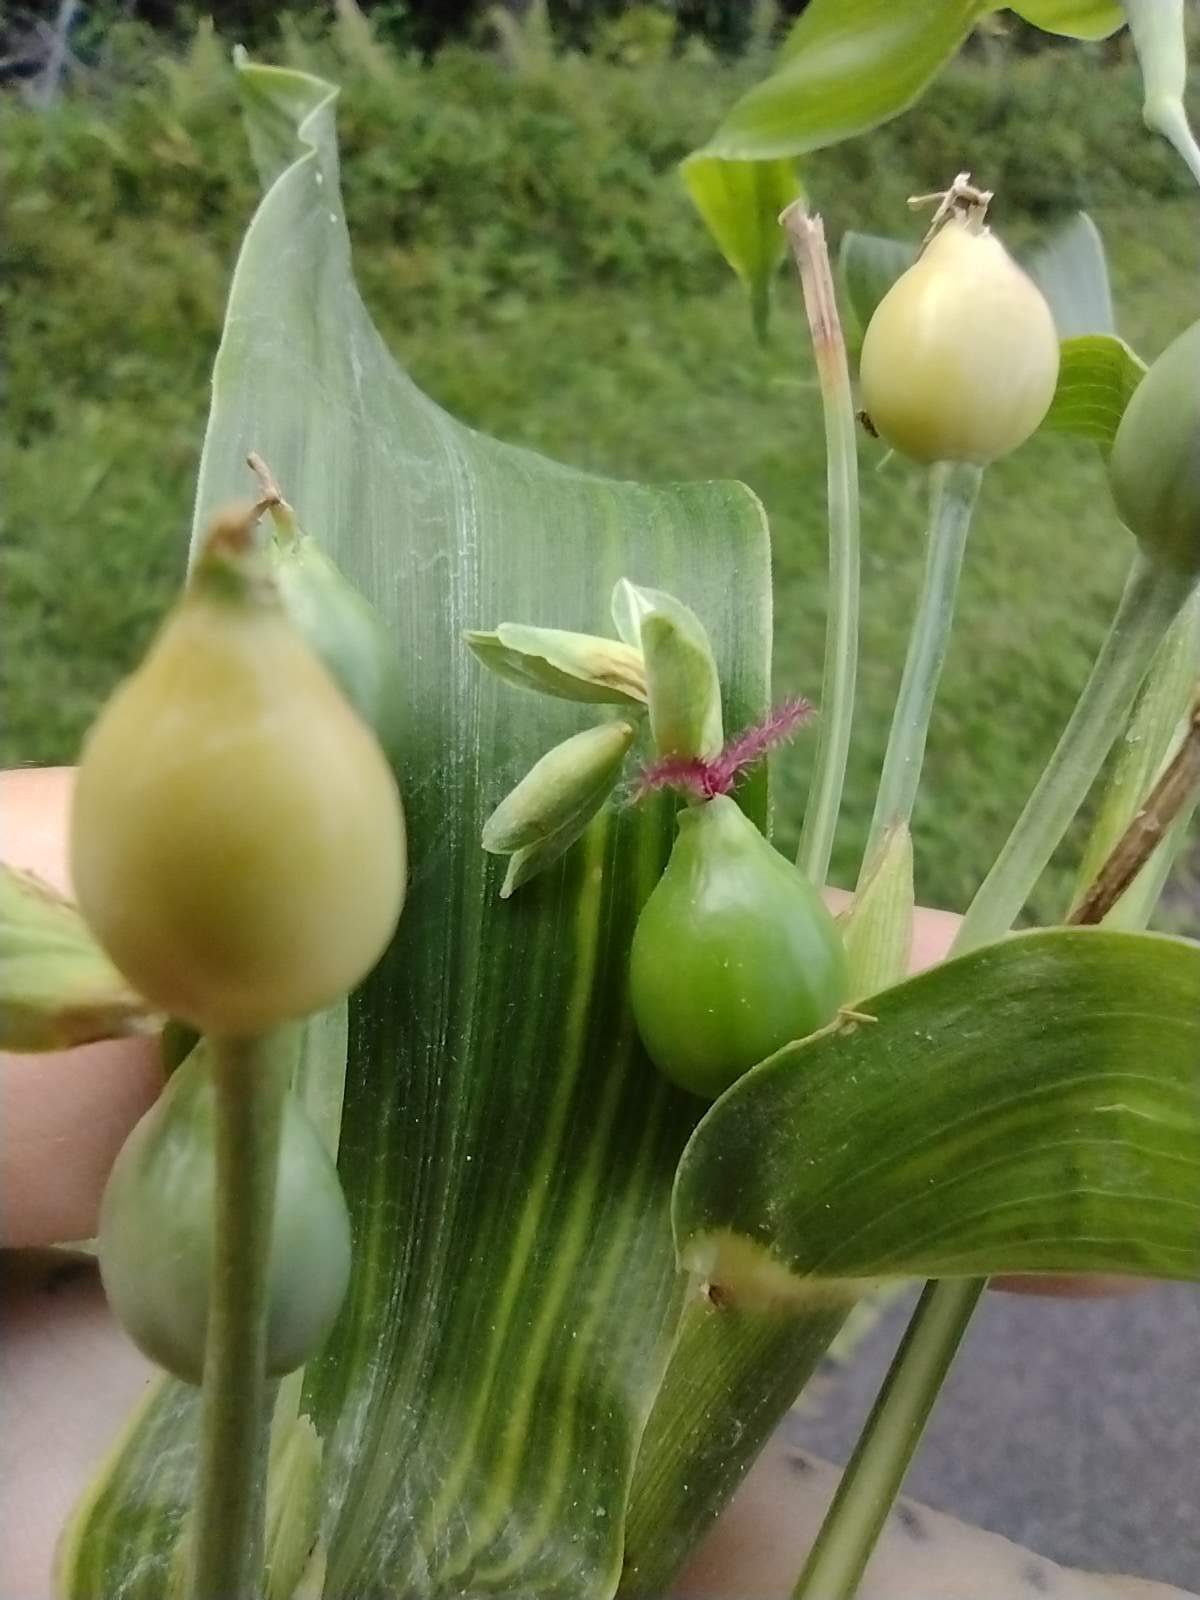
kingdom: Plantae
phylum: Tracheophyta
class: Liliopsida
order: Poales
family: Poaceae
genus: Coix
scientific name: Coix lacryma-jobi
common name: Job's tears
